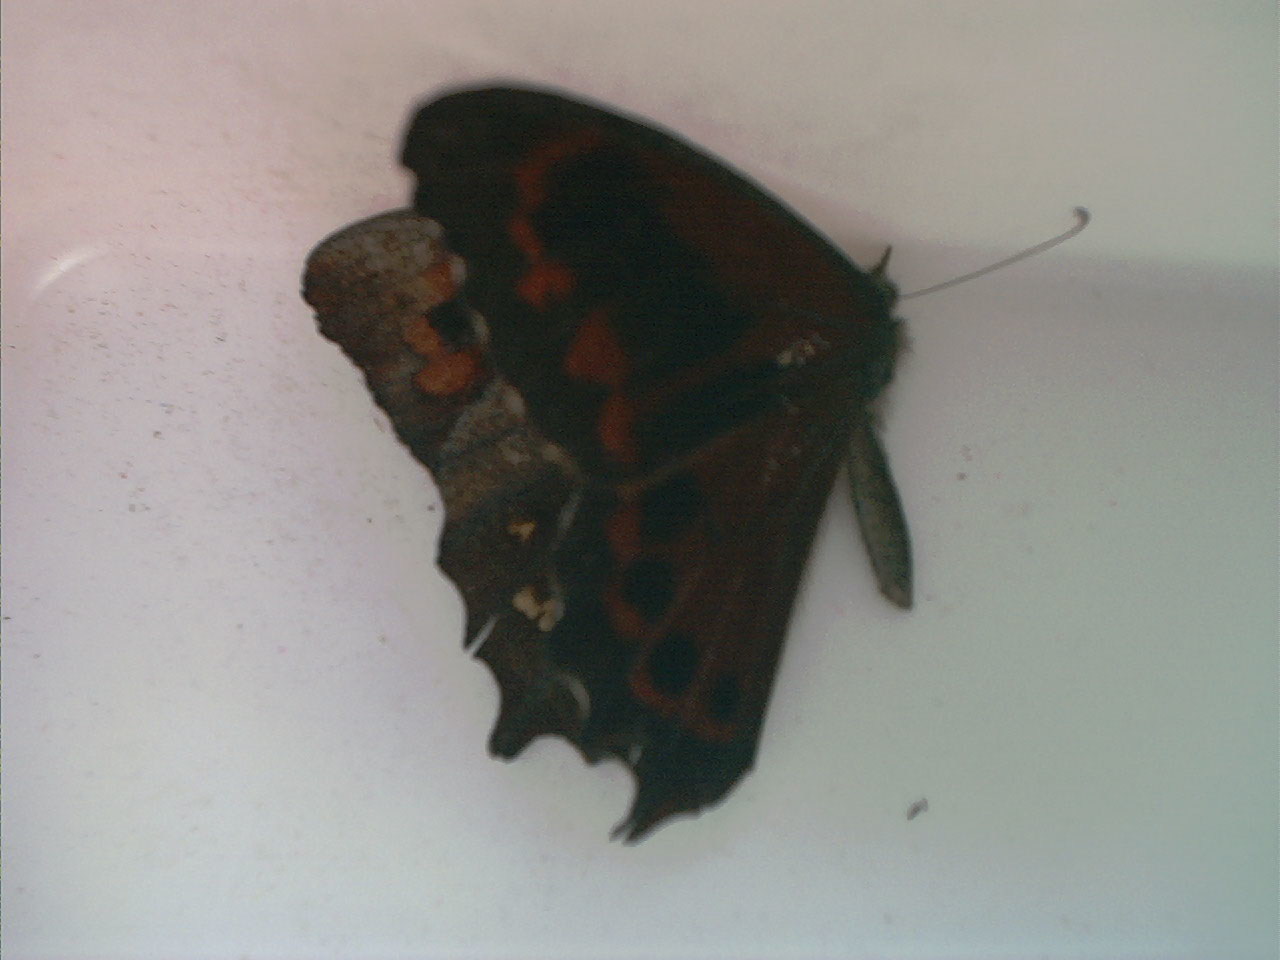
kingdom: Animalia
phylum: Arthropoda
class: Insecta
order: Lepidoptera
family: Nymphalidae
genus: Lasiophila
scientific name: Lasiophila orbifera
